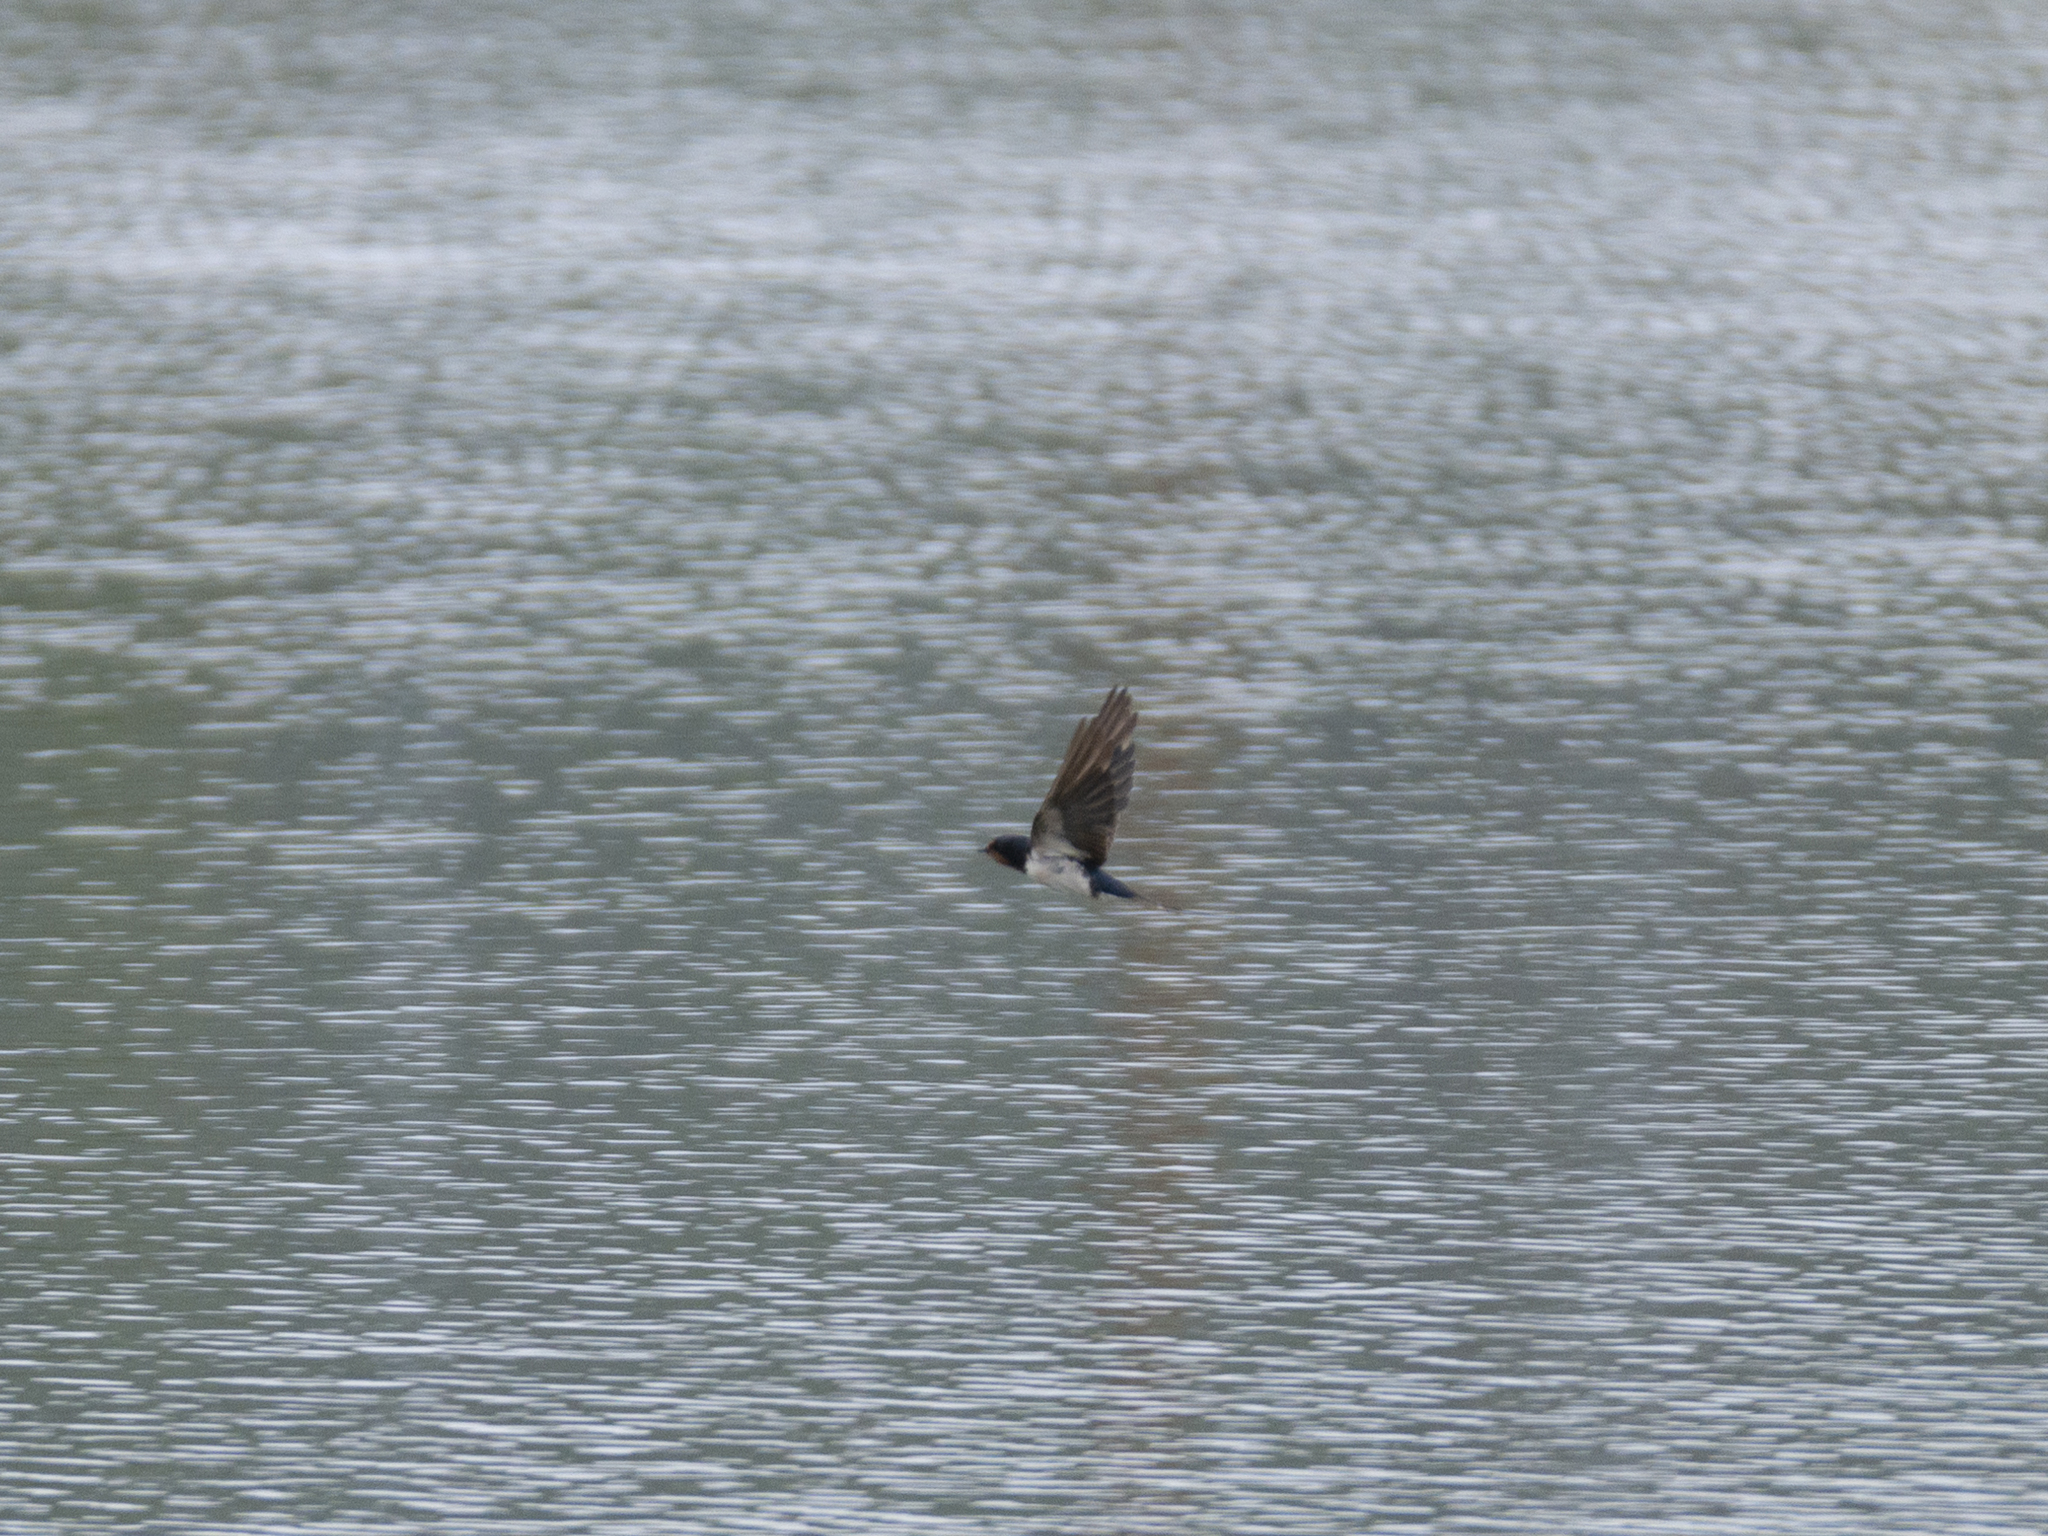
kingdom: Animalia
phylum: Chordata
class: Aves
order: Passeriformes
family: Hirundinidae
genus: Hirundo
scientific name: Hirundo rustica
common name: Barn swallow
